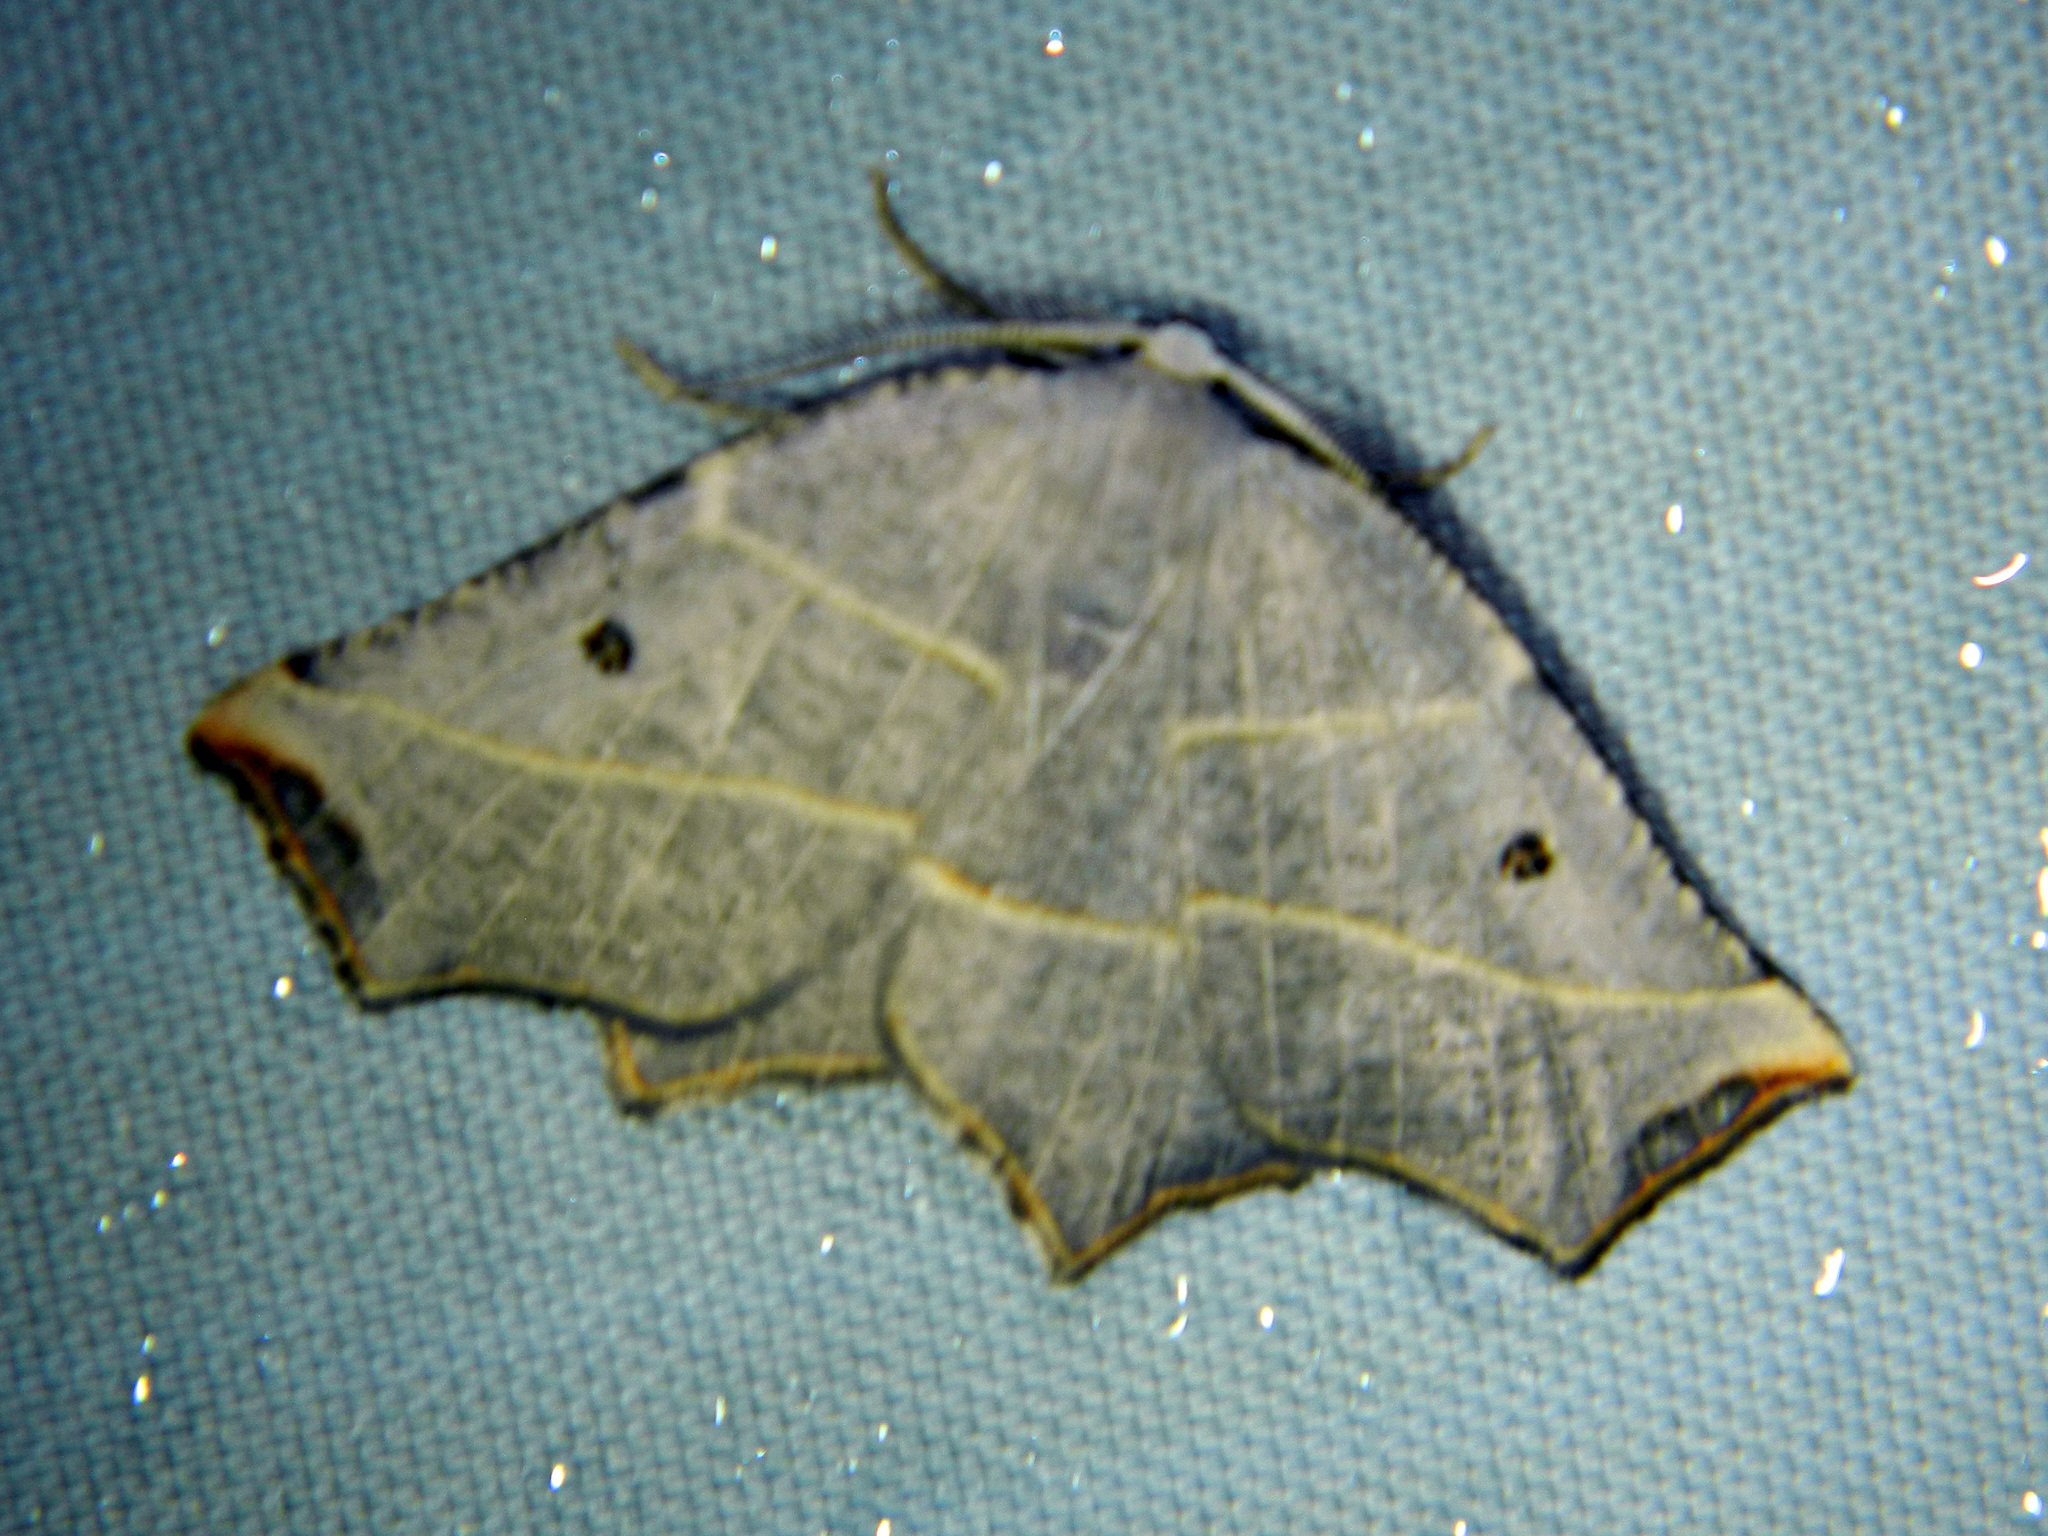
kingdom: Animalia
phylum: Arthropoda
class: Insecta
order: Lepidoptera
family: Geometridae
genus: Metanema
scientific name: Metanema inatomaria
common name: Pale metanema
